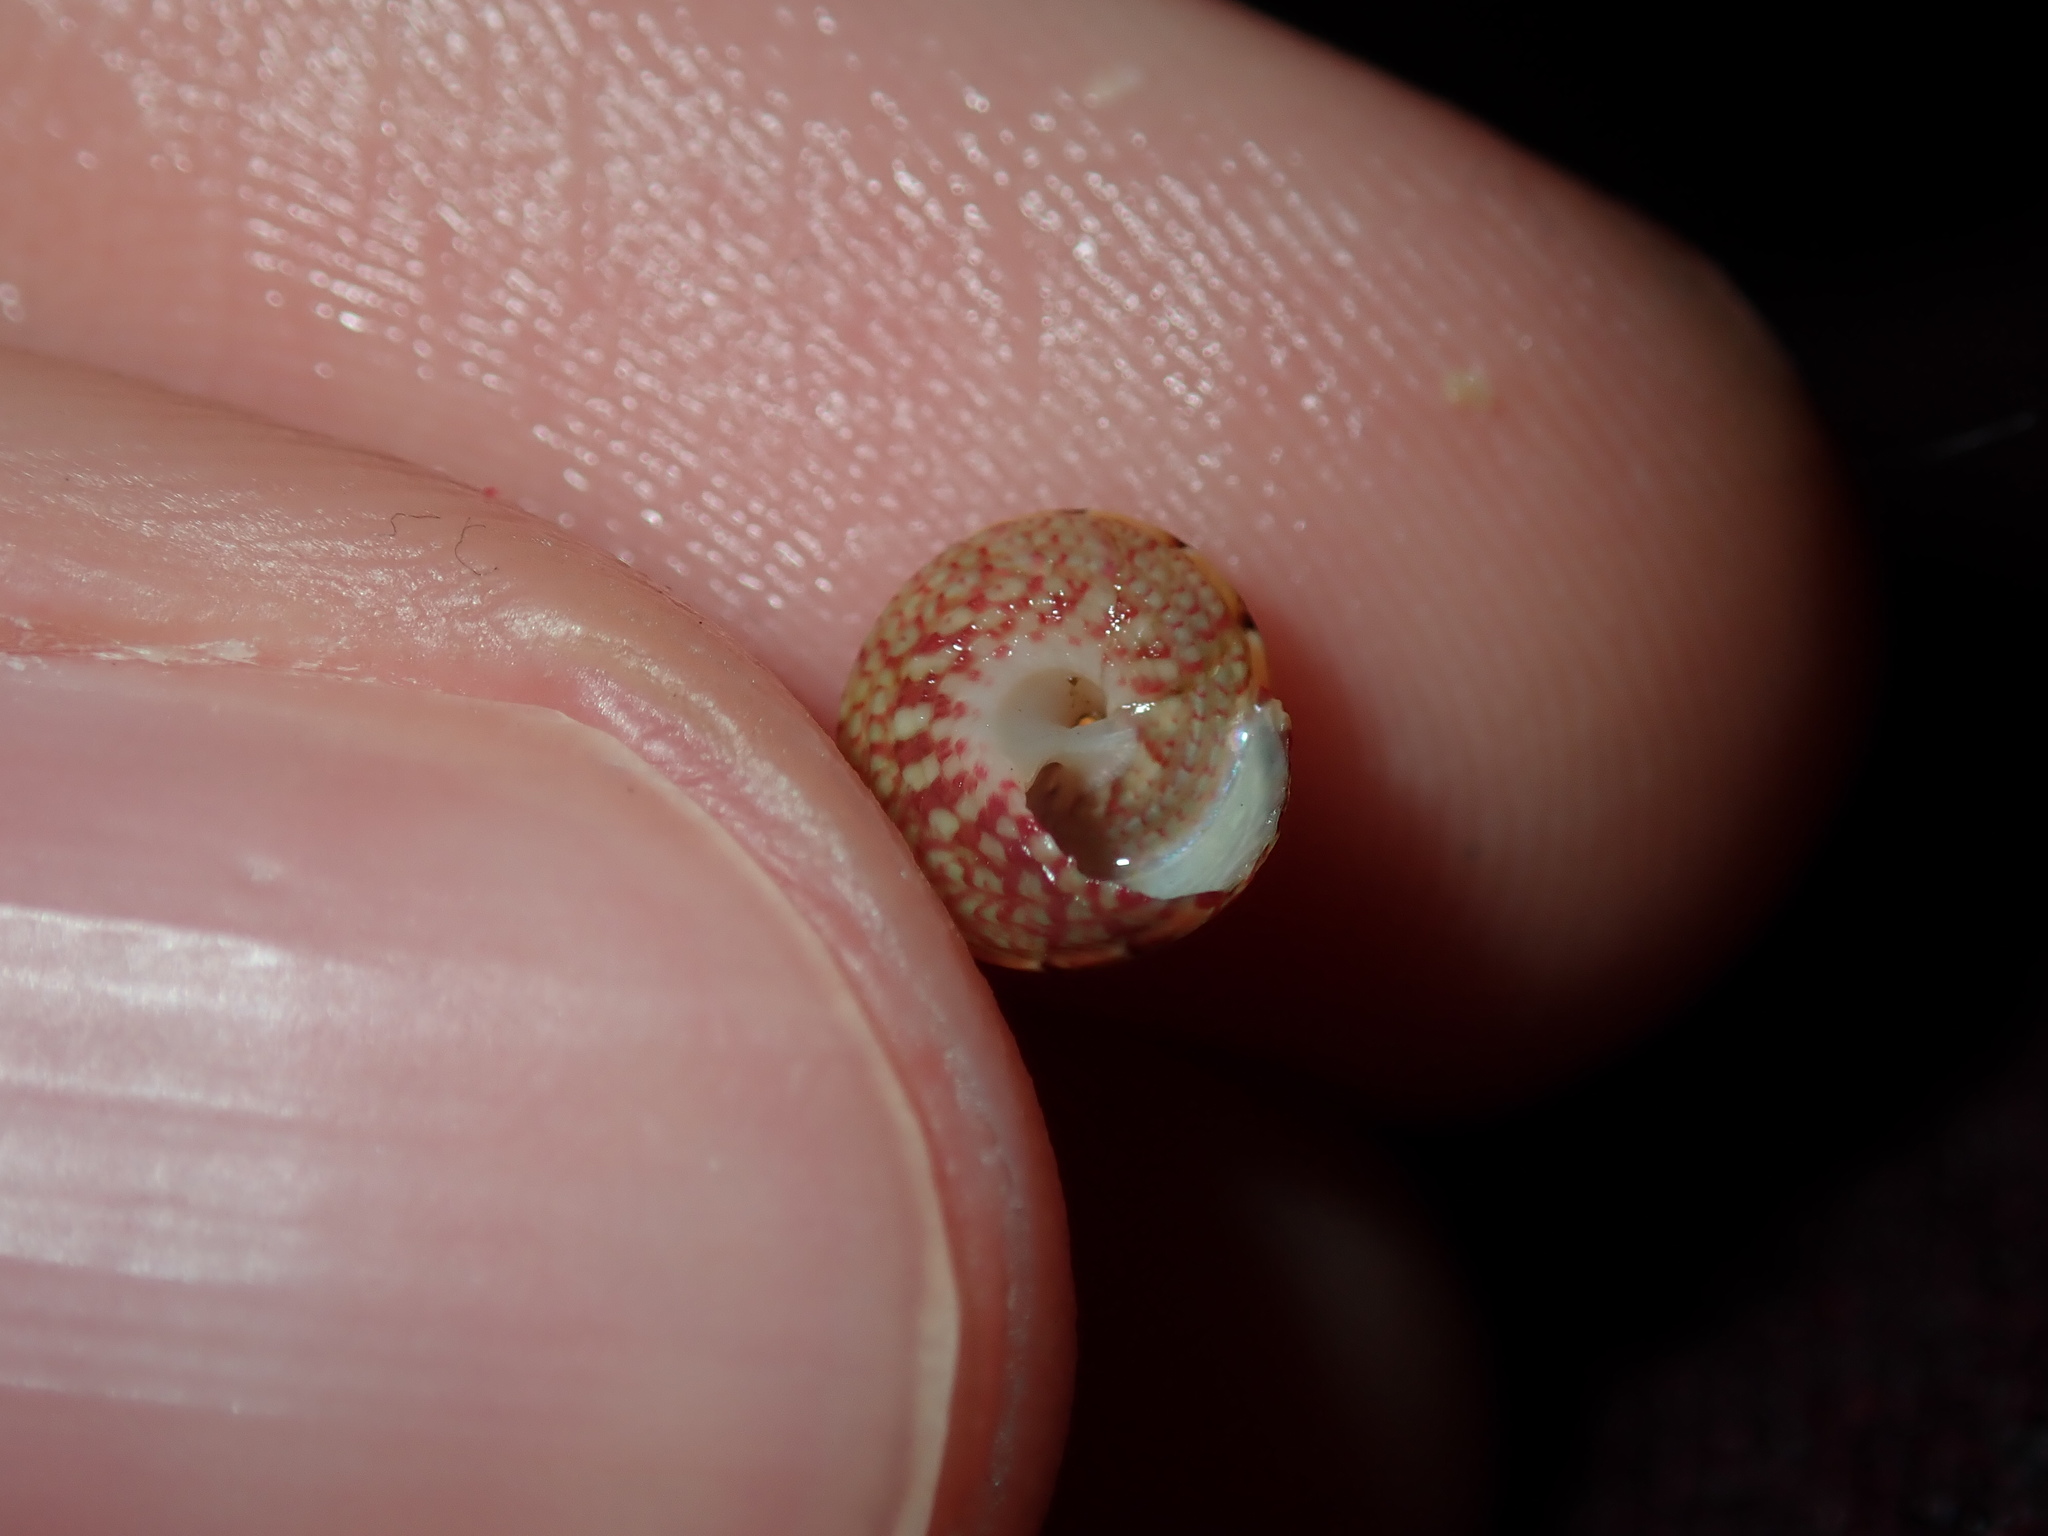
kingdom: Animalia
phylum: Mollusca
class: Gastropoda
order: Trochida
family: Trochidae
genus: Cantharidella
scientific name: Cantharidella picturata
